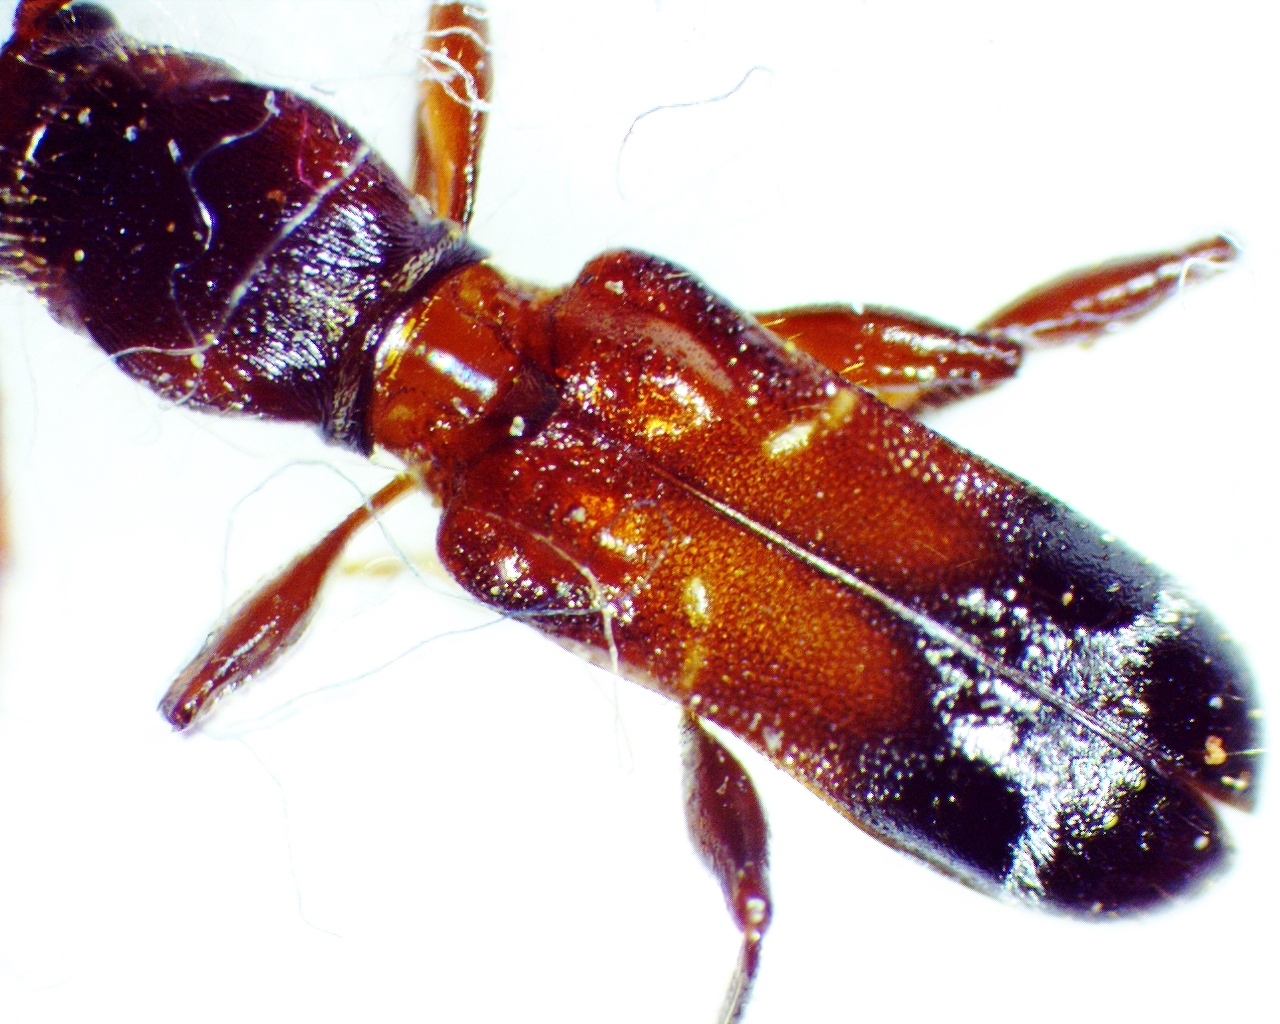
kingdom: Animalia
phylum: Arthropoda
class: Insecta
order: Coleoptera
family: Cerambycidae
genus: Euderces
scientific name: Euderces pini
